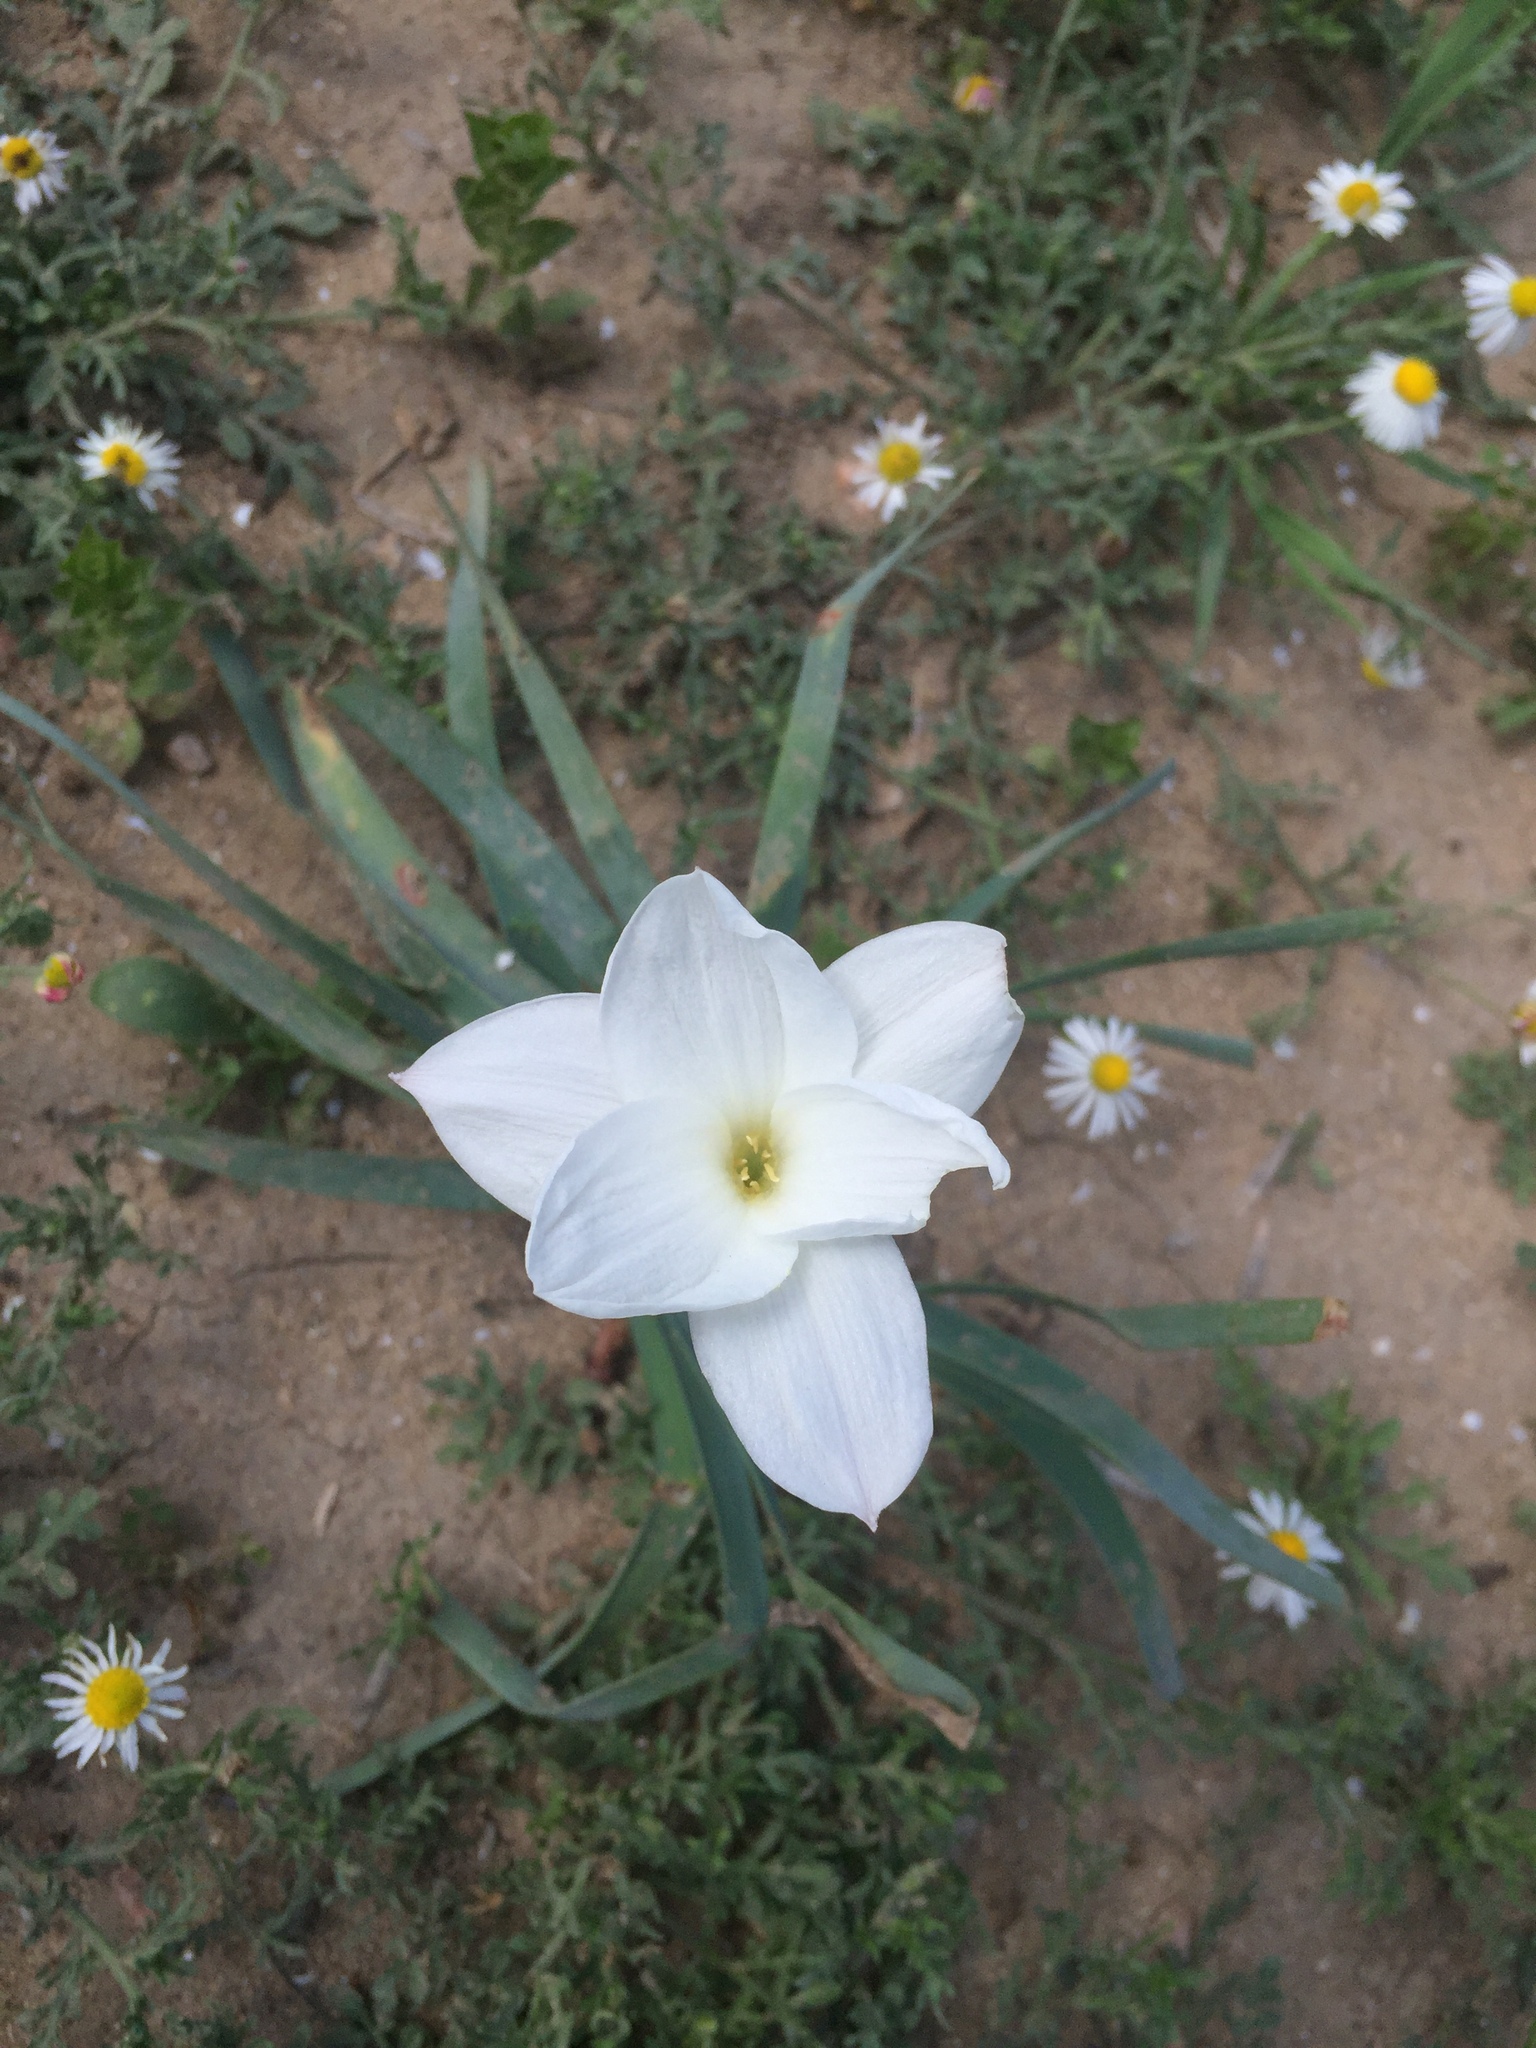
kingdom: Plantae
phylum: Tracheophyta
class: Liliopsida
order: Asparagales
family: Amaryllidaceae
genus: Zephyranthes
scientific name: Zephyranthes drummondii
